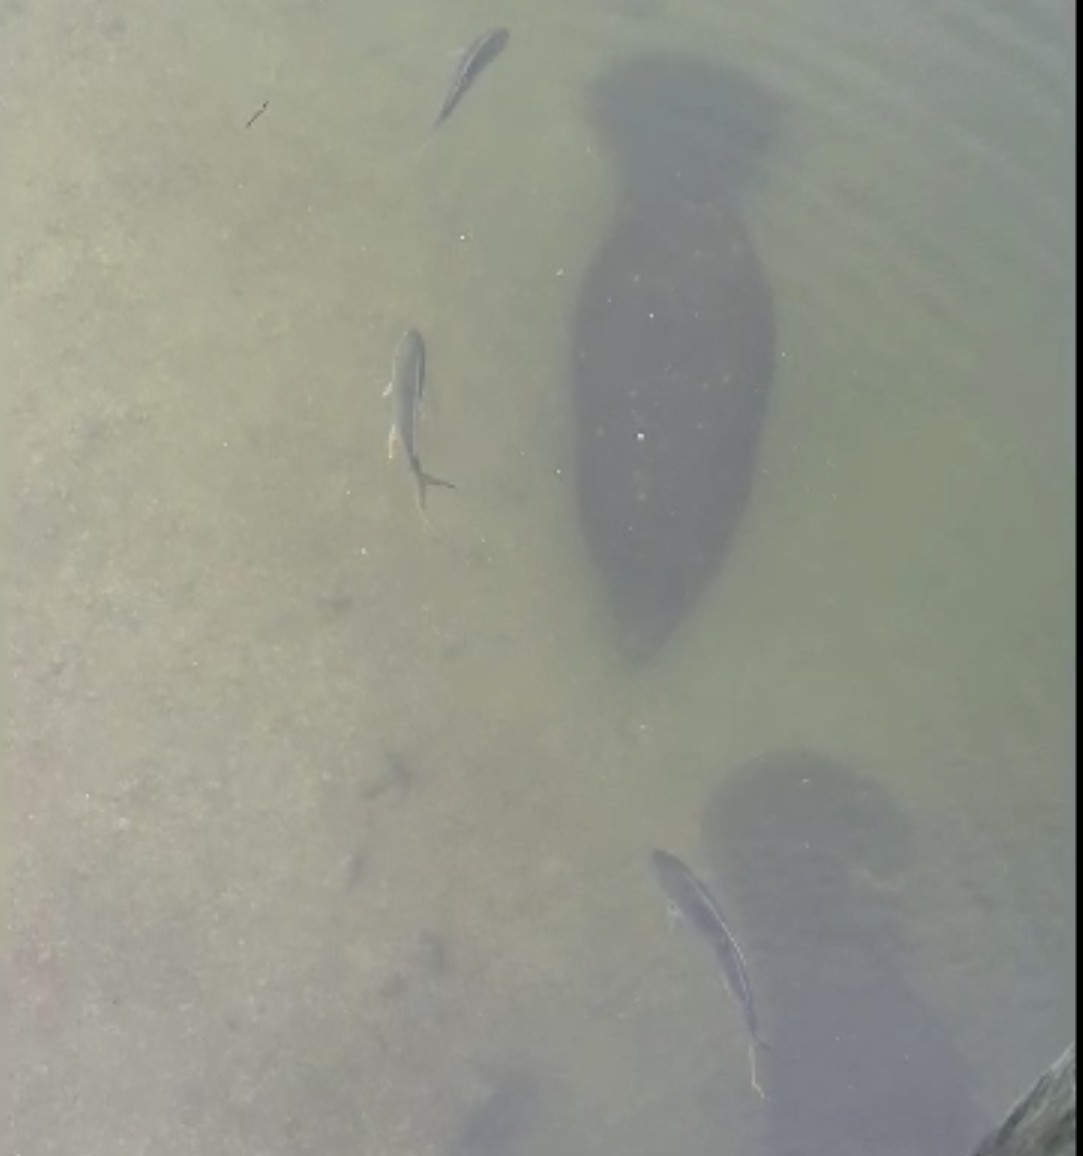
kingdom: Animalia
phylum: Chordata
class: Mammalia
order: Sirenia
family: Trichechidae
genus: Trichechus
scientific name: Trichechus manatus
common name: West indian manatee
